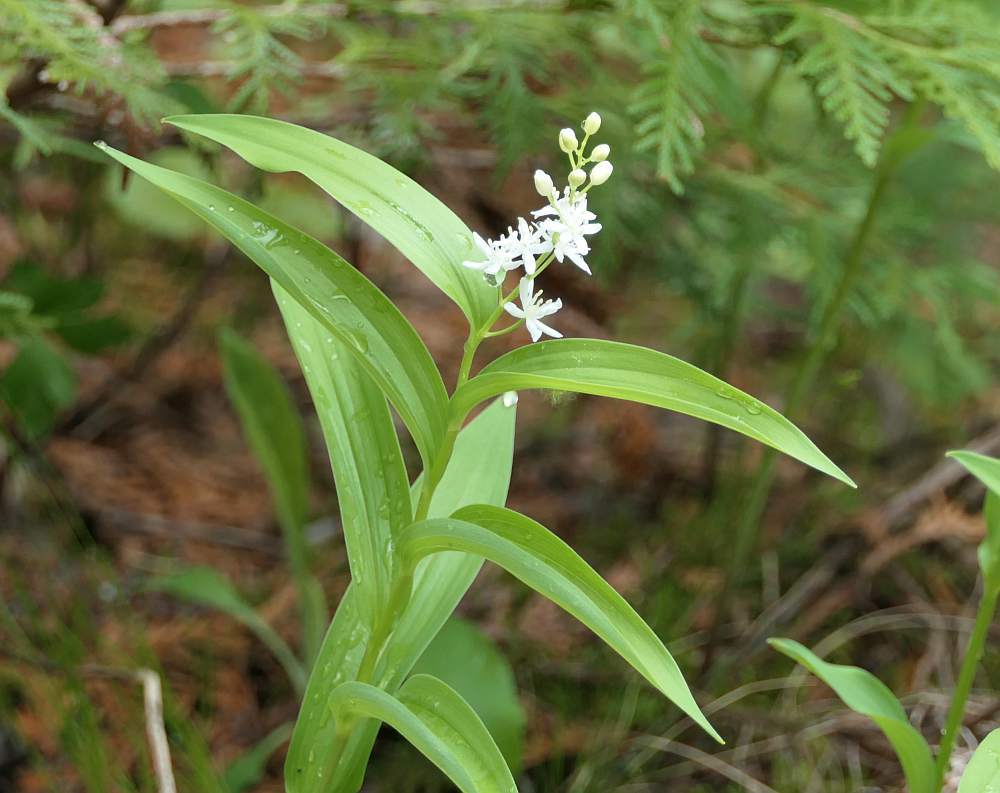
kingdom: Plantae
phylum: Tracheophyta
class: Liliopsida
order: Asparagales
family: Asparagaceae
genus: Maianthemum
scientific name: Maianthemum stellatum
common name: Little false solomon's seal
